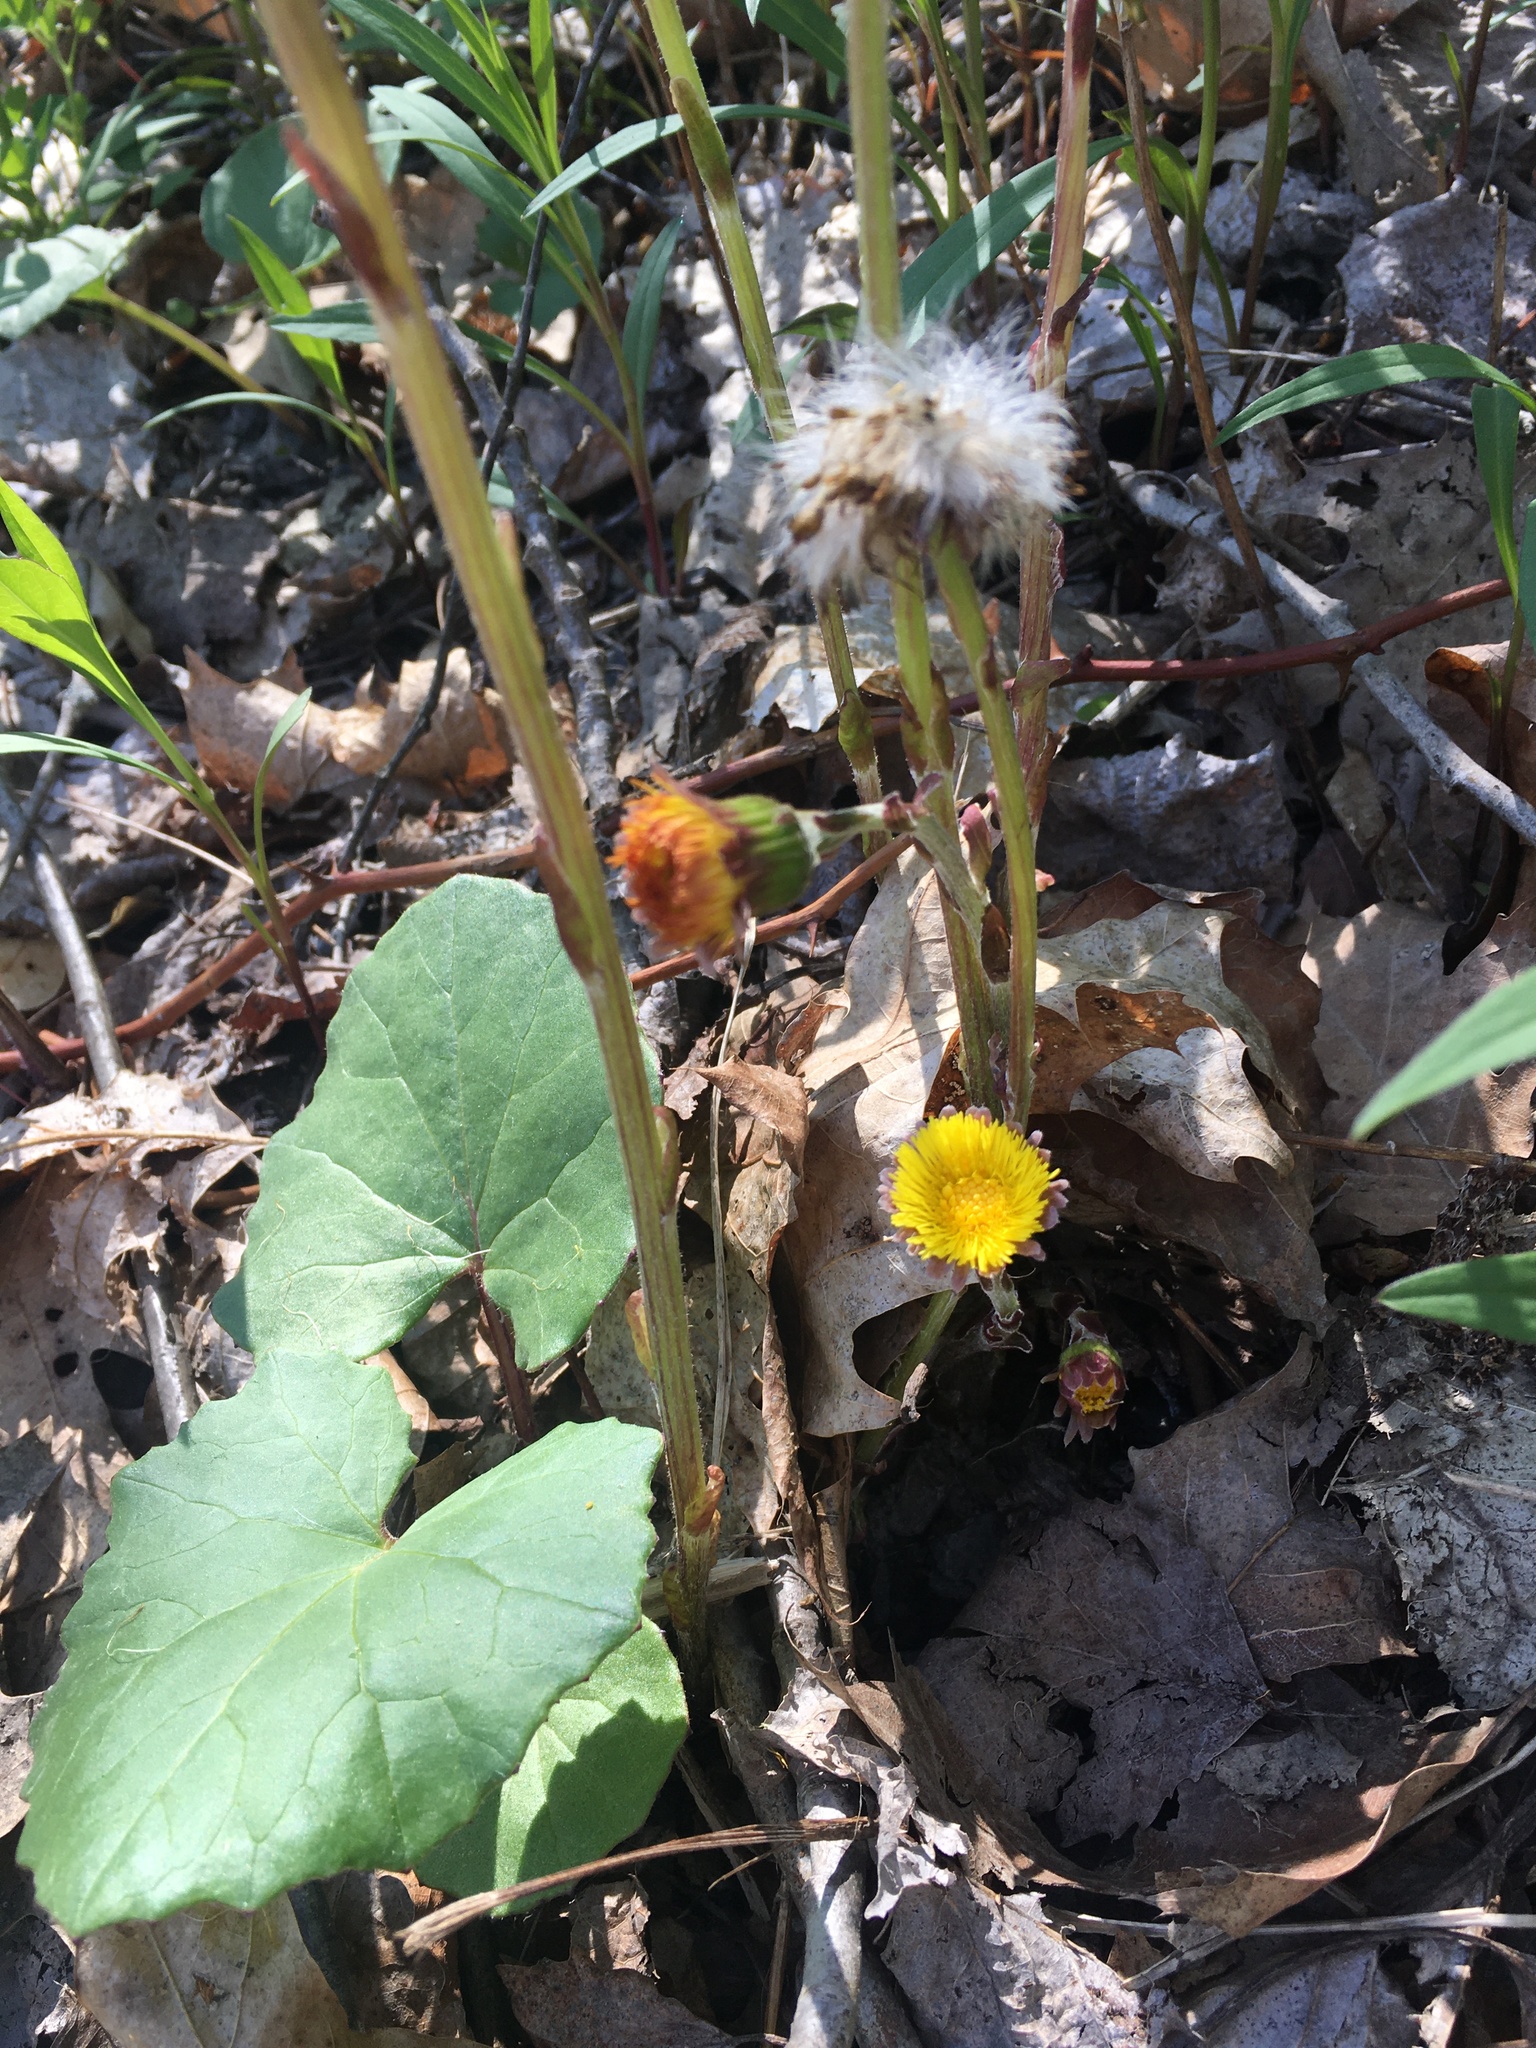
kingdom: Plantae
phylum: Tracheophyta
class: Magnoliopsida
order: Asterales
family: Asteraceae
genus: Tussilago
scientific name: Tussilago farfara
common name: Coltsfoot
